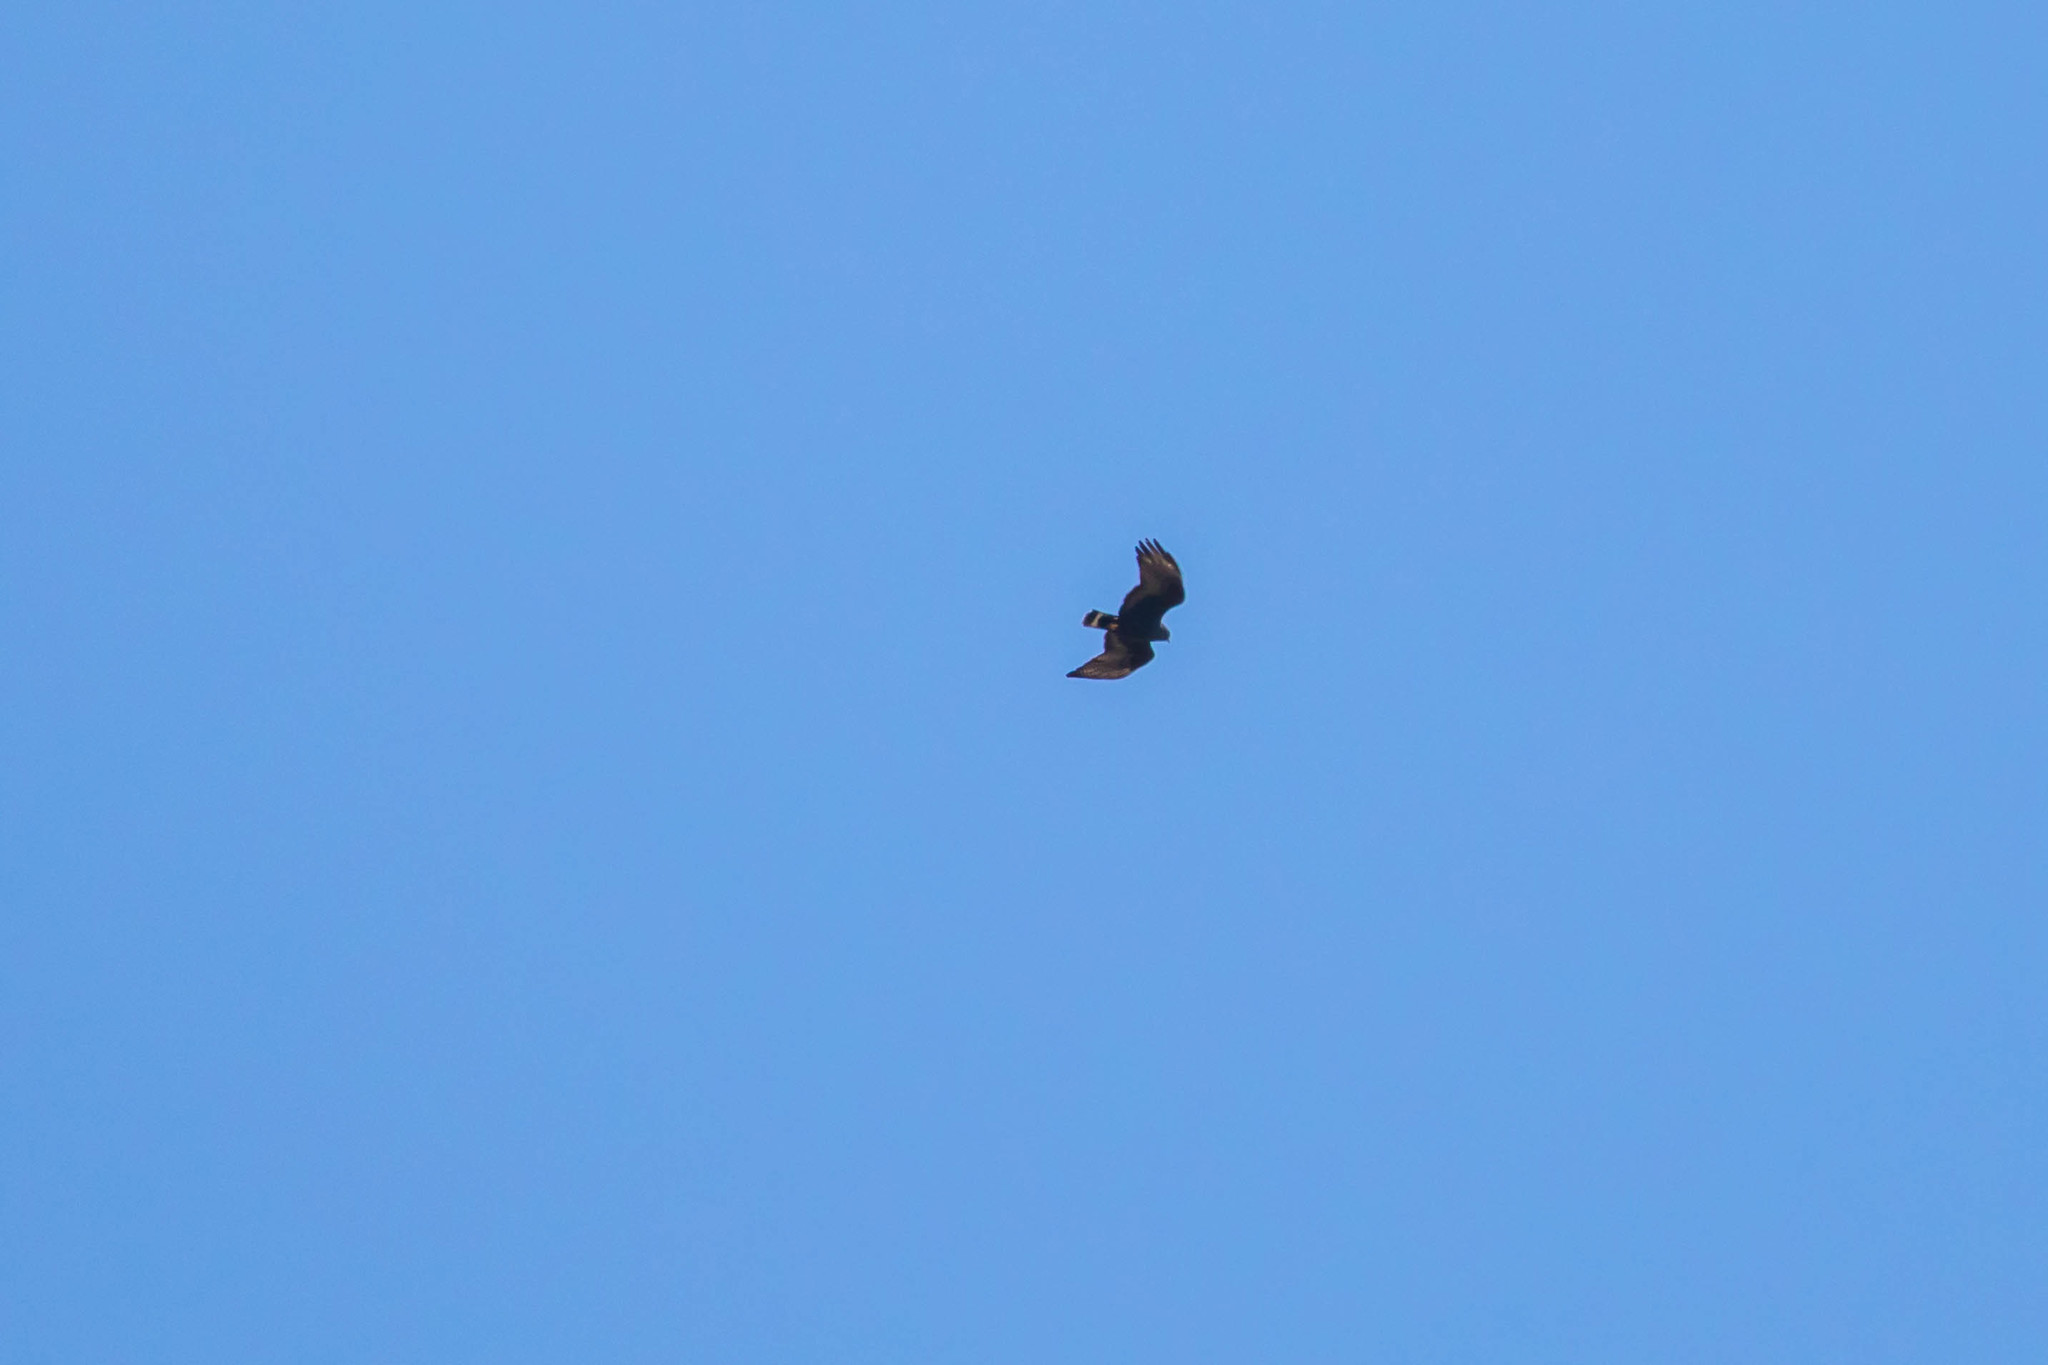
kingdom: Animalia
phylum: Chordata
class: Aves
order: Accipitriformes
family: Accipitridae
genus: Buteo
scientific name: Buteo albonotatus
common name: Zone-tailed hawk
